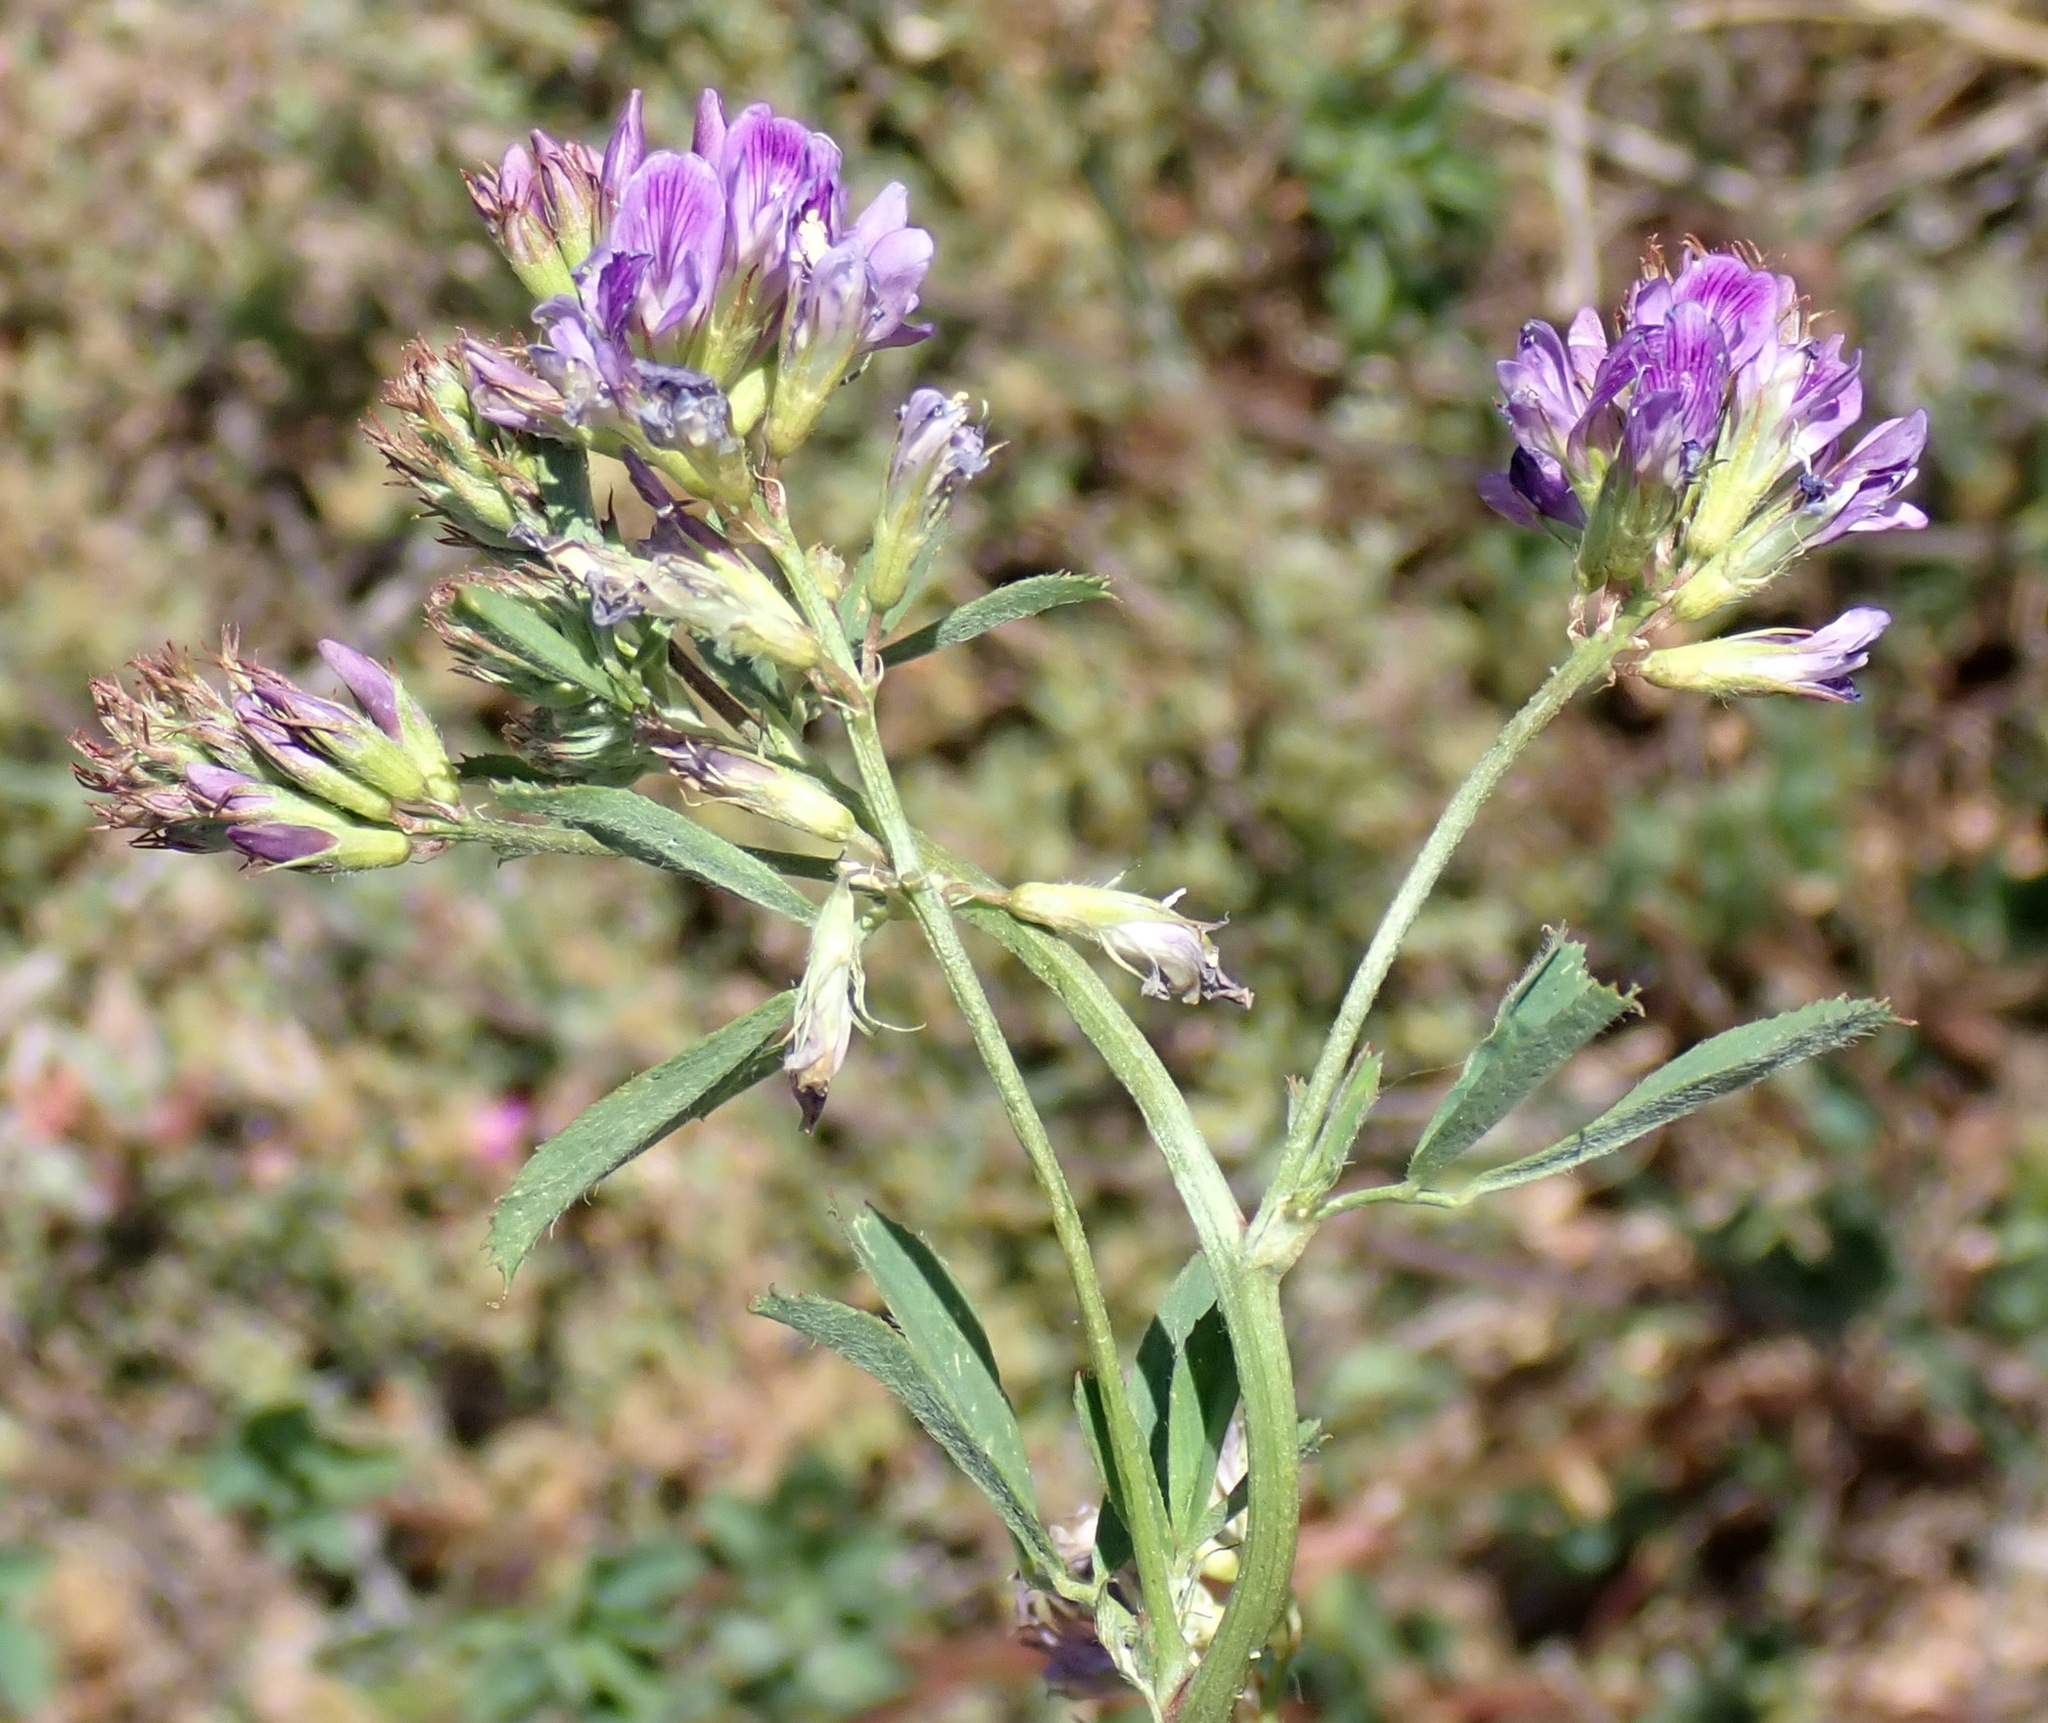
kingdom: Plantae
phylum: Tracheophyta
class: Magnoliopsida
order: Fabales
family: Fabaceae
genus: Medicago
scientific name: Medicago sativa
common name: Alfalfa
